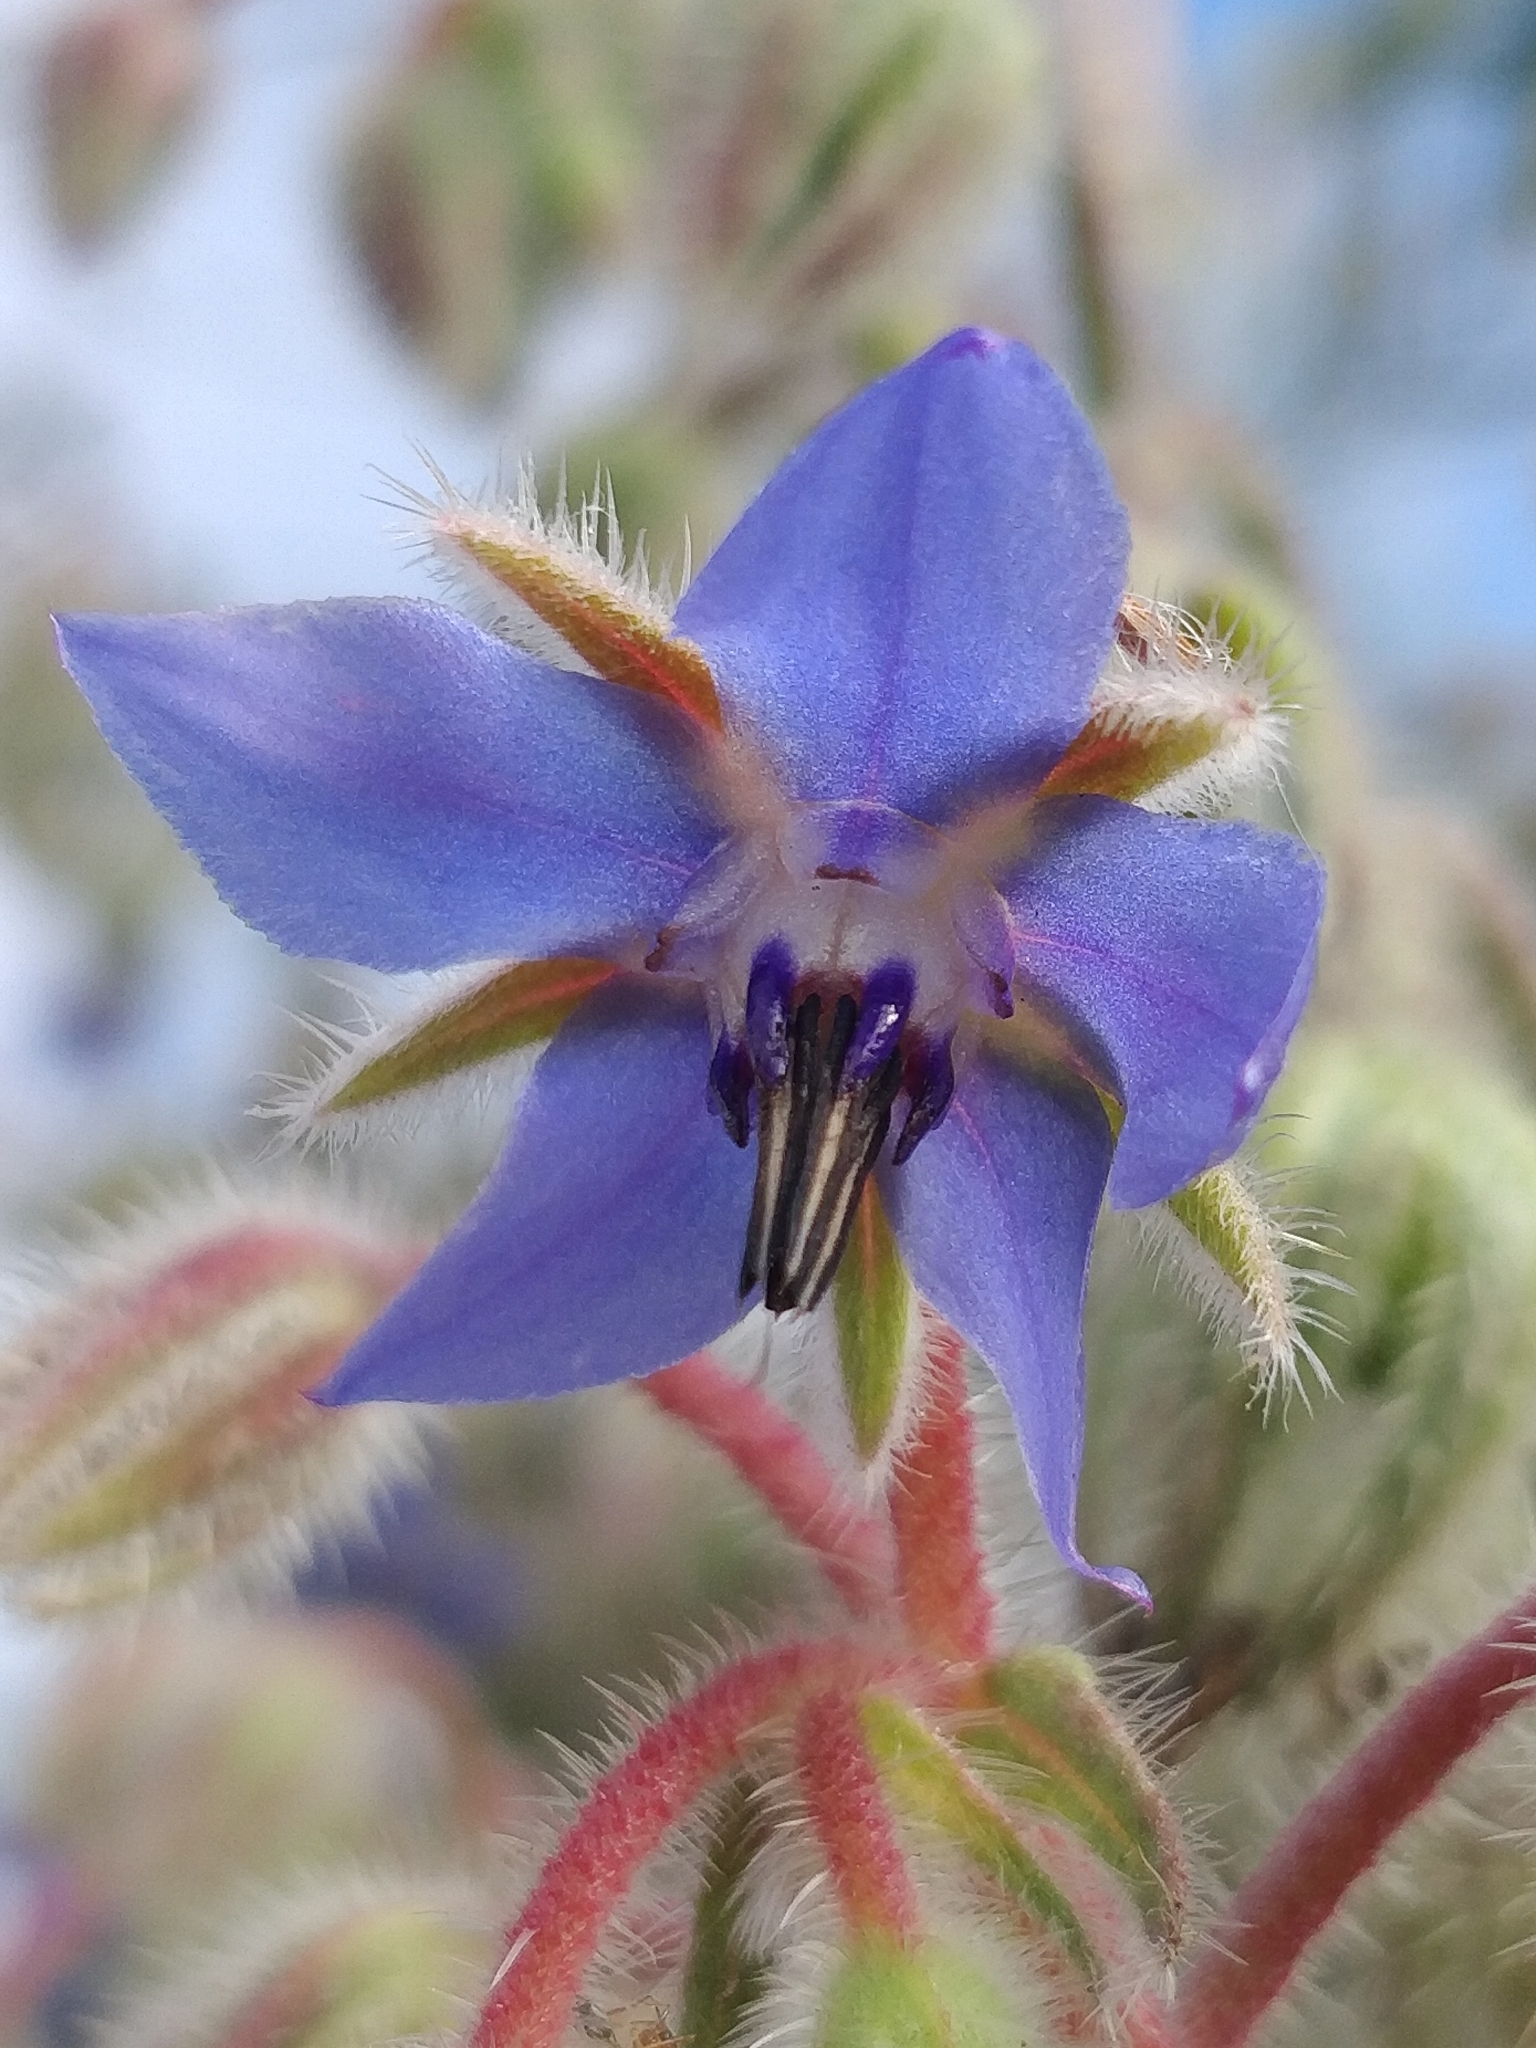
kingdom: Plantae
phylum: Tracheophyta
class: Magnoliopsida
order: Boraginales
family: Boraginaceae
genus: Borago
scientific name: Borago officinalis
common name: Borage
